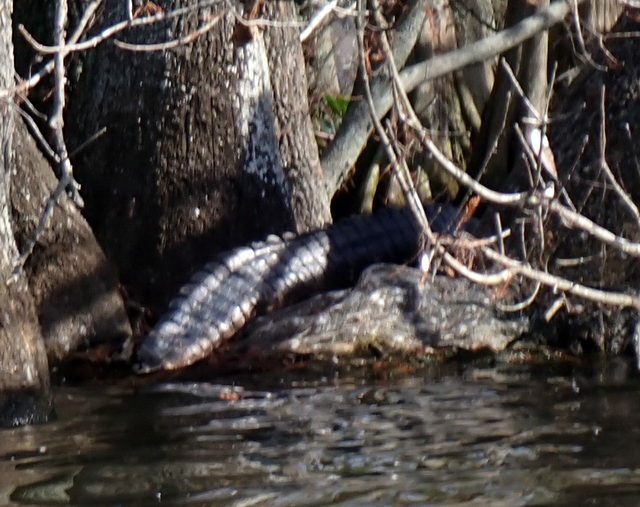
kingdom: Animalia
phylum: Chordata
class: Crocodylia
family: Alligatoridae
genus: Alligator
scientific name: Alligator mississippiensis
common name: American alligator
